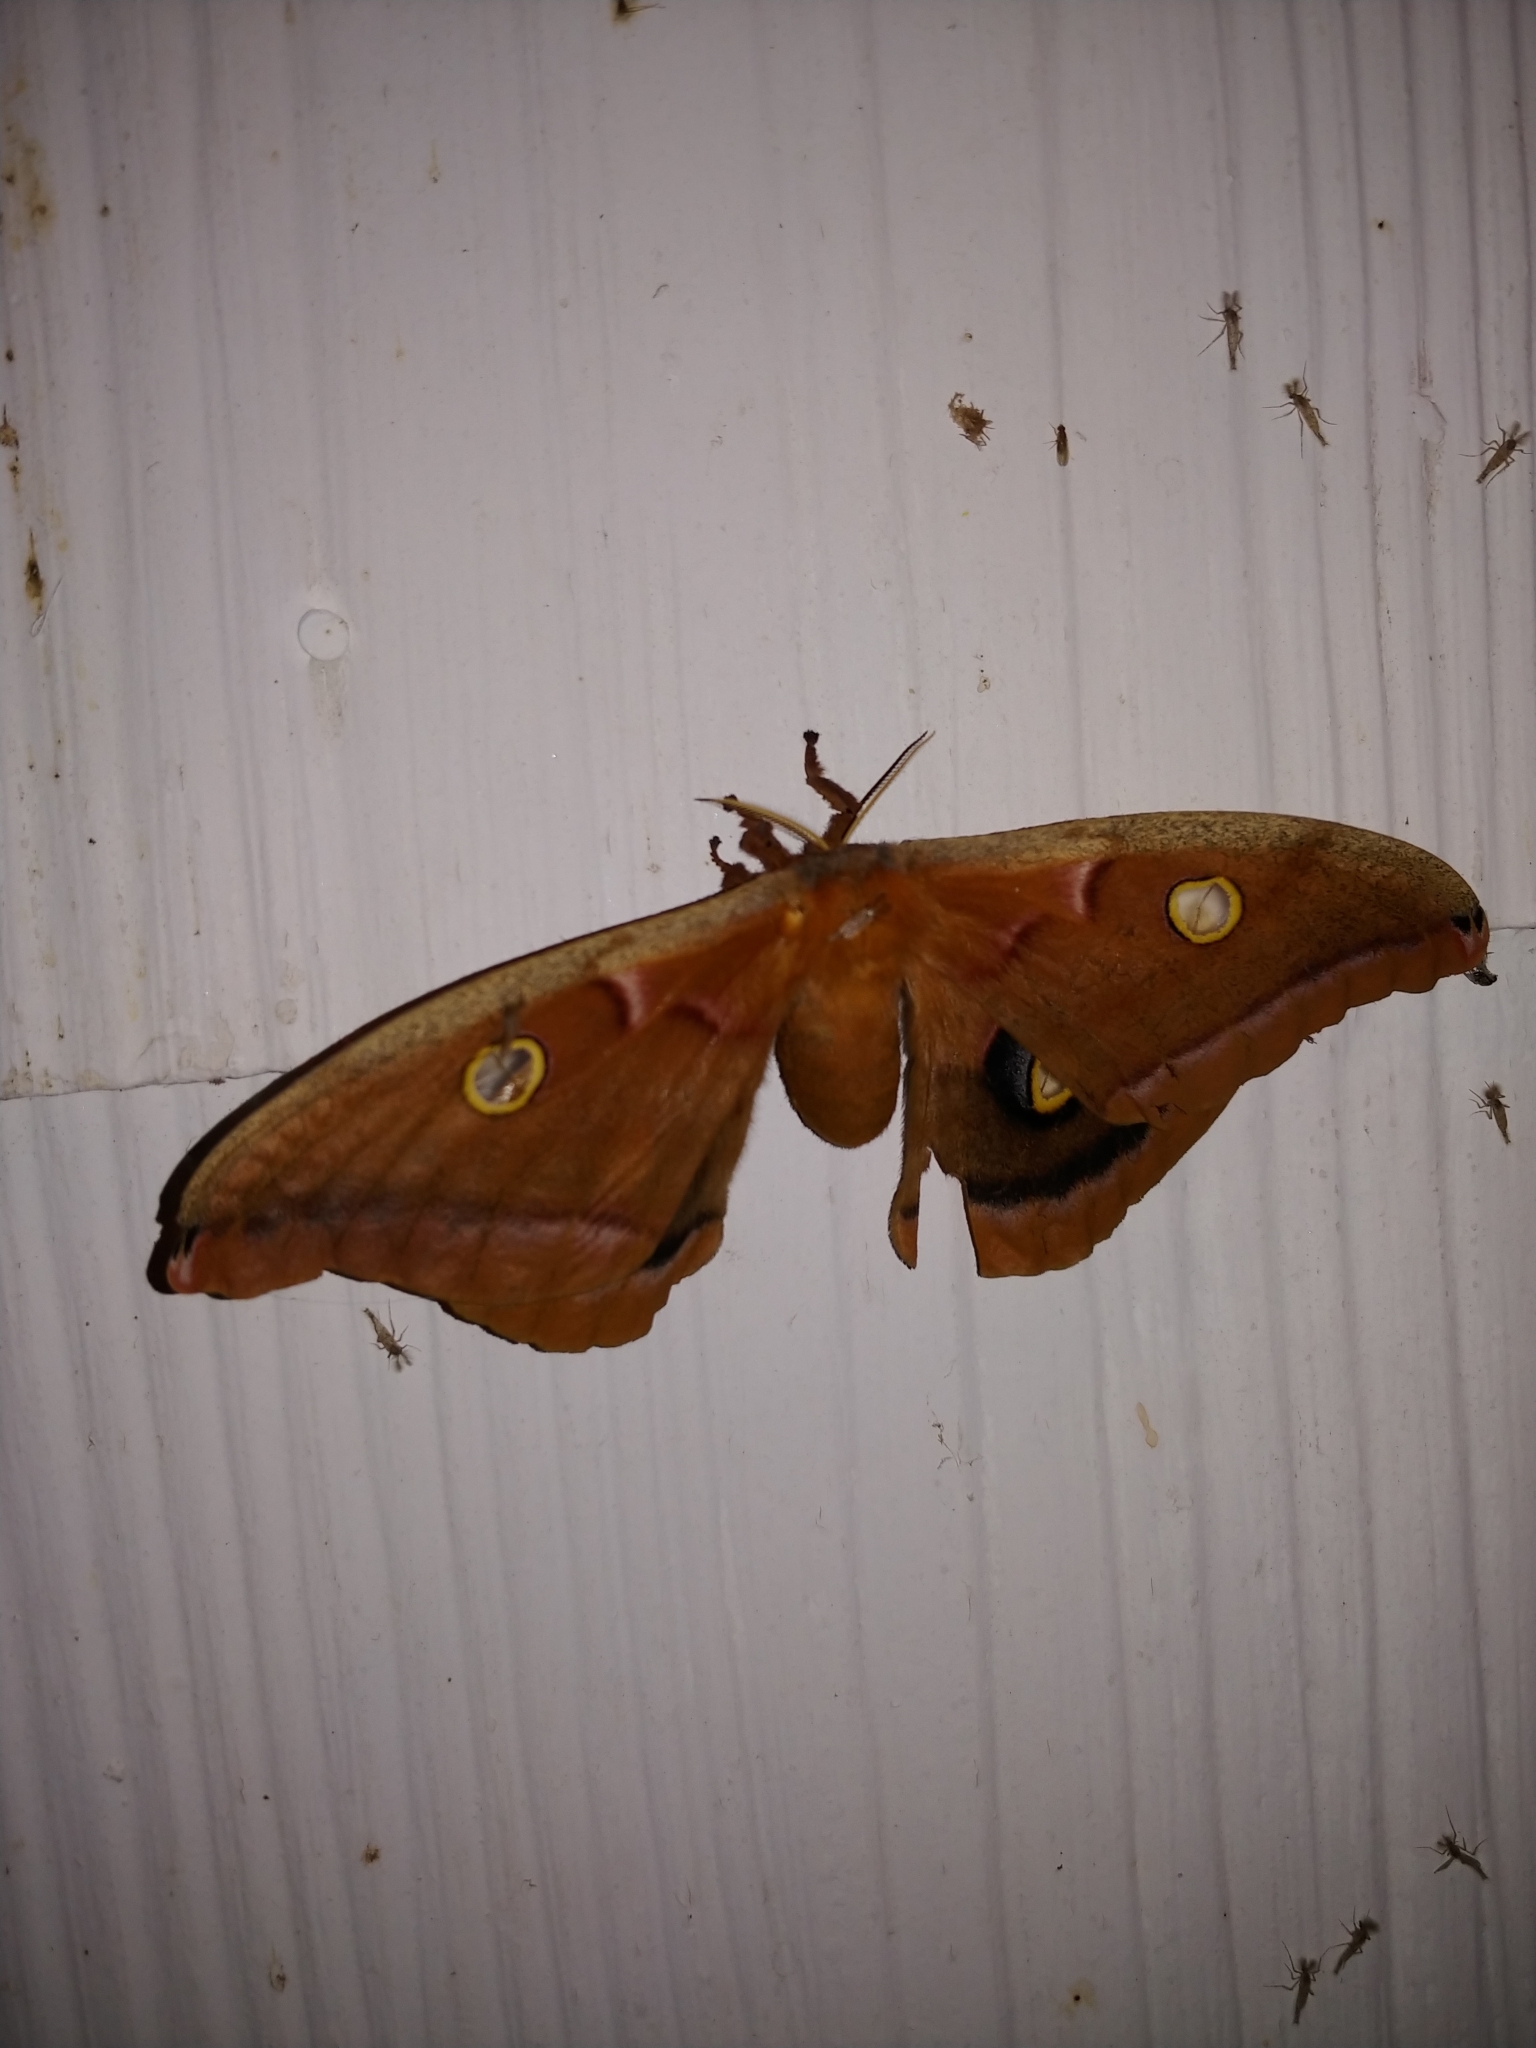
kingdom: Animalia
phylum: Arthropoda
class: Insecta
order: Lepidoptera
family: Saturniidae
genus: Antheraea
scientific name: Antheraea polyphemus
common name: Polyphemus moth
